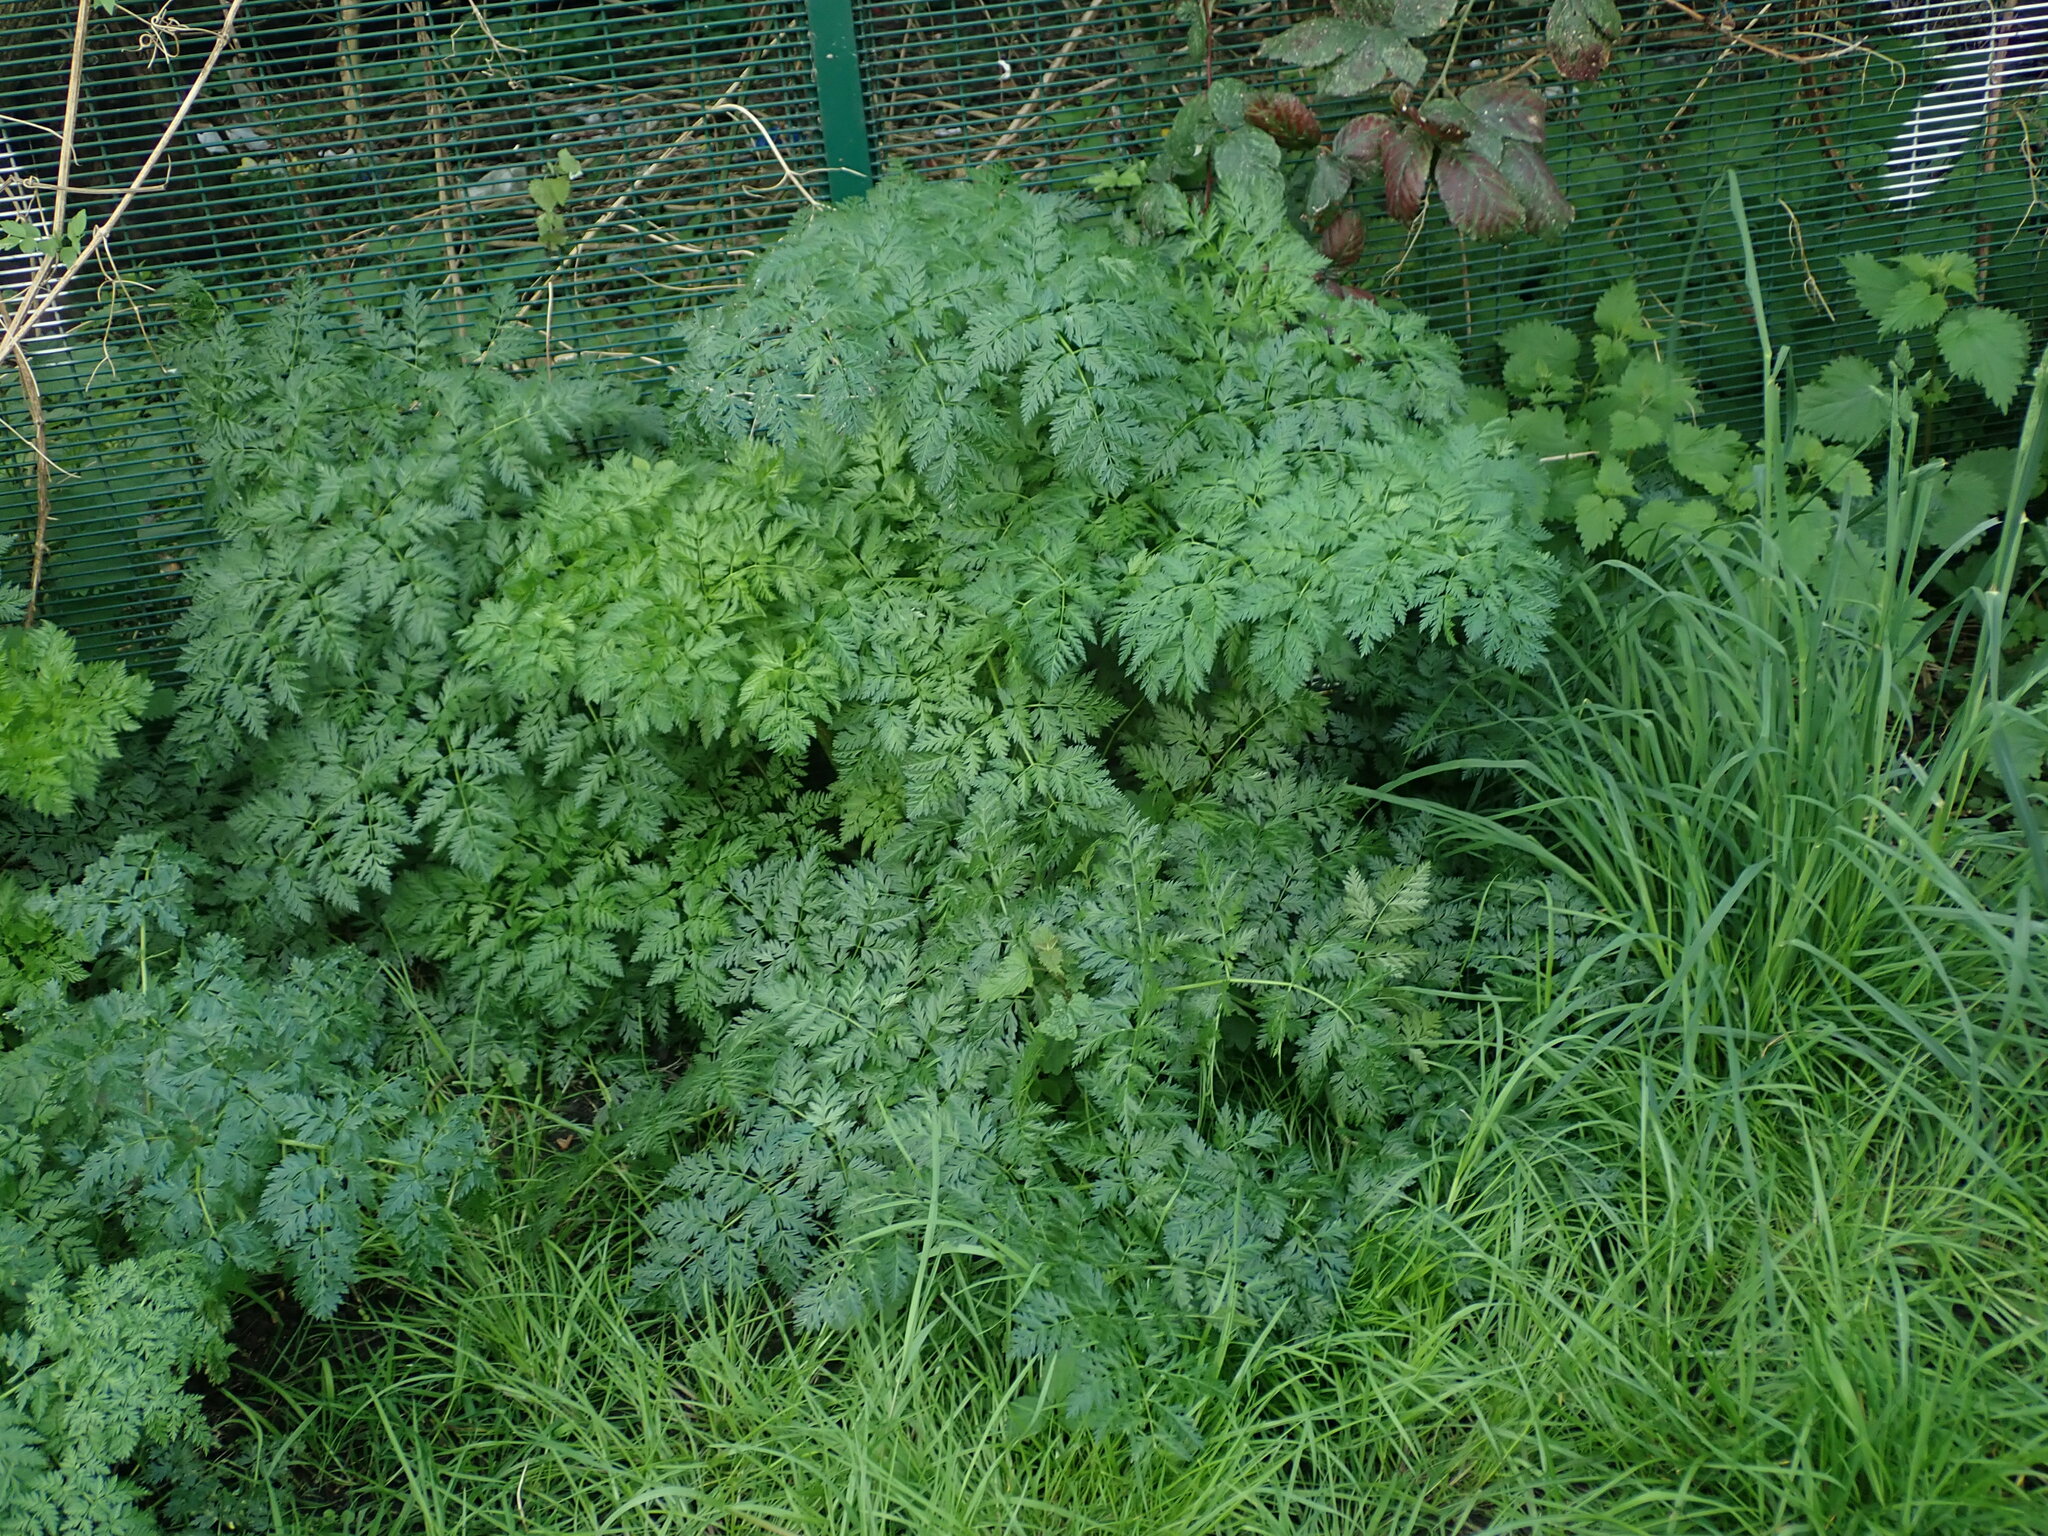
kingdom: Plantae
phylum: Tracheophyta
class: Magnoliopsida
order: Apiales
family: Apiaceae
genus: Conium
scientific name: Conium maculatum
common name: Hemlock
